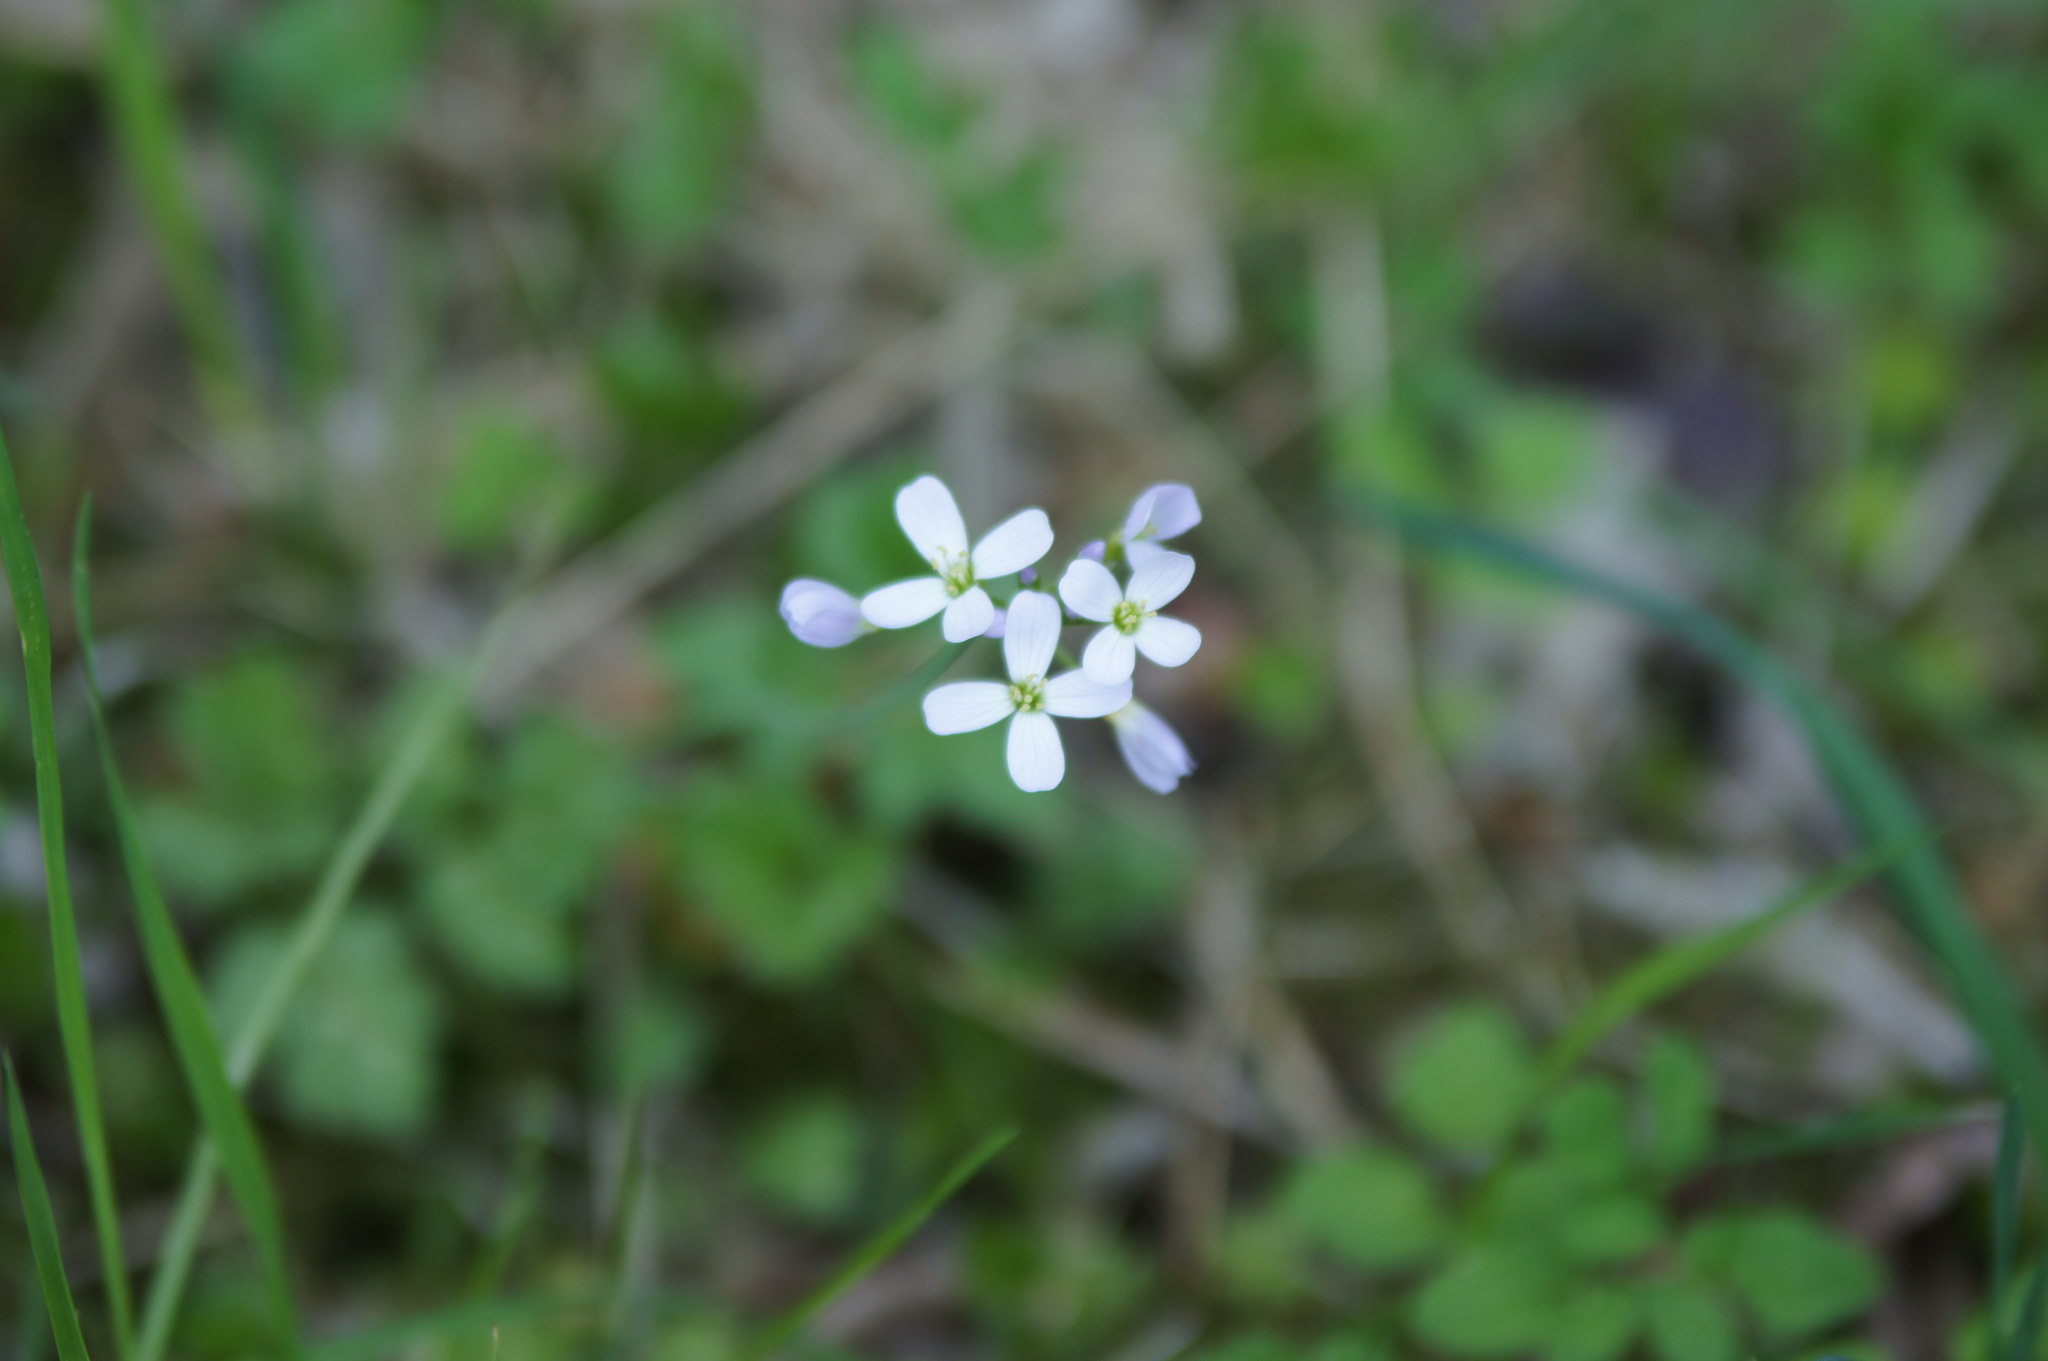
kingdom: Plantae
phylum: Tracheophyta
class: Magnoliopsida
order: Brassicales
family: Brassicaceae
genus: Cardamine
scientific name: Cardamine pratensis
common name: Cuckoo flower
